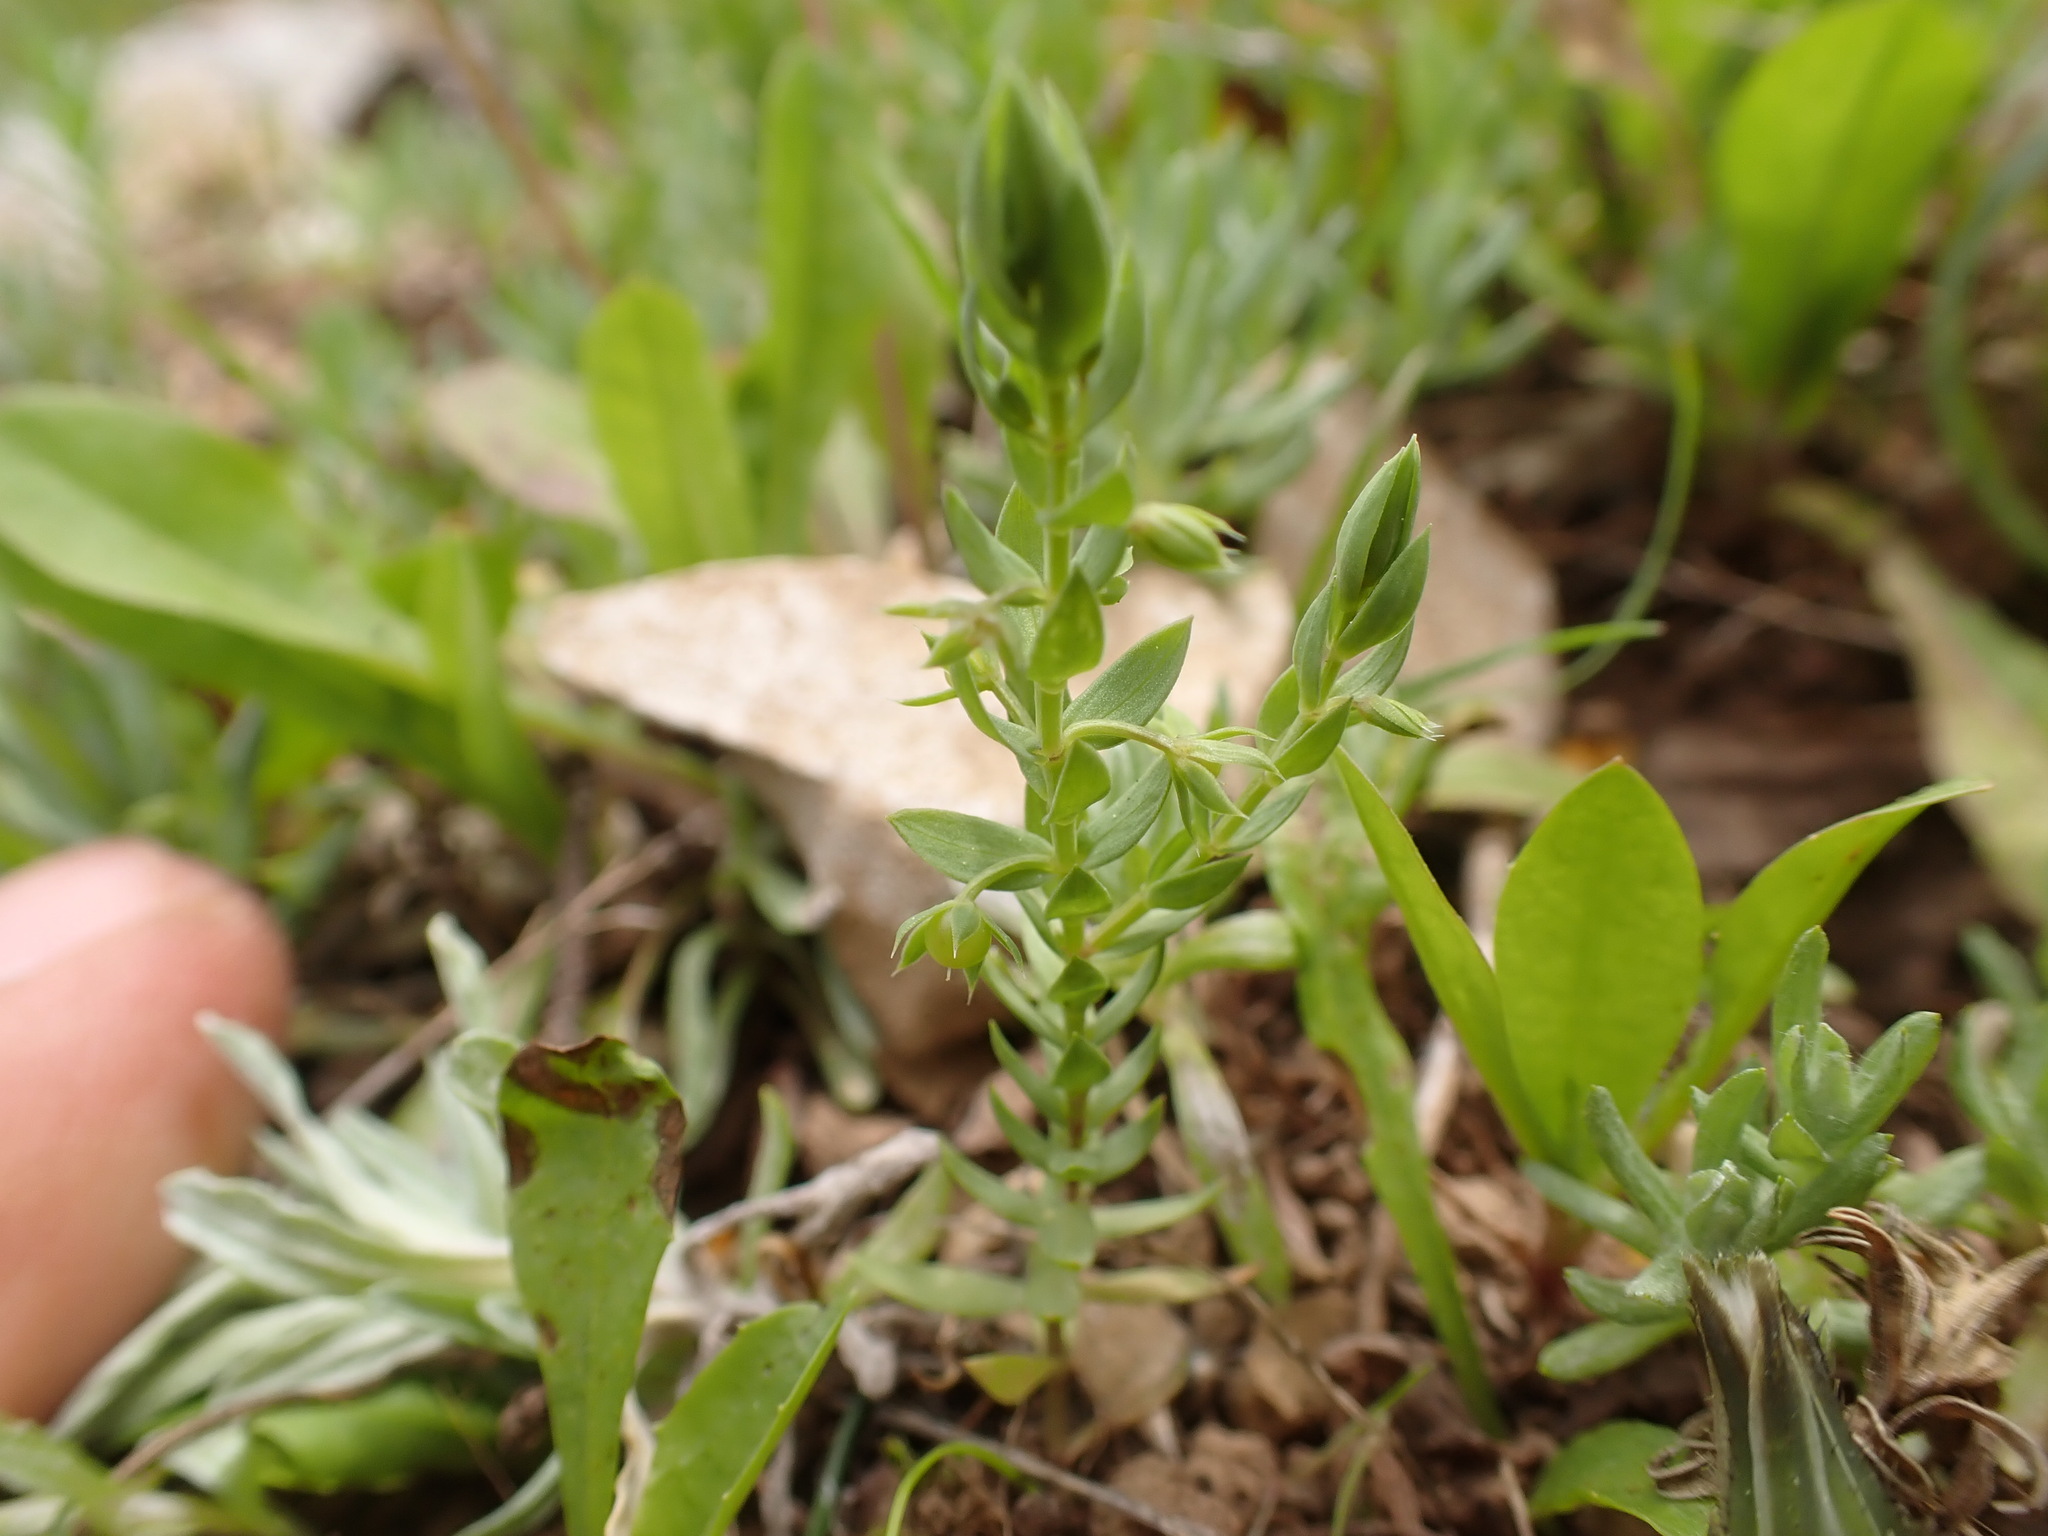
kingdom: Plantae
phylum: Tracheophyta
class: Magnoliopsida
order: Ericales
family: Primulaceae
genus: Lysimachia
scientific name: Lysimachia linum-stellatum
